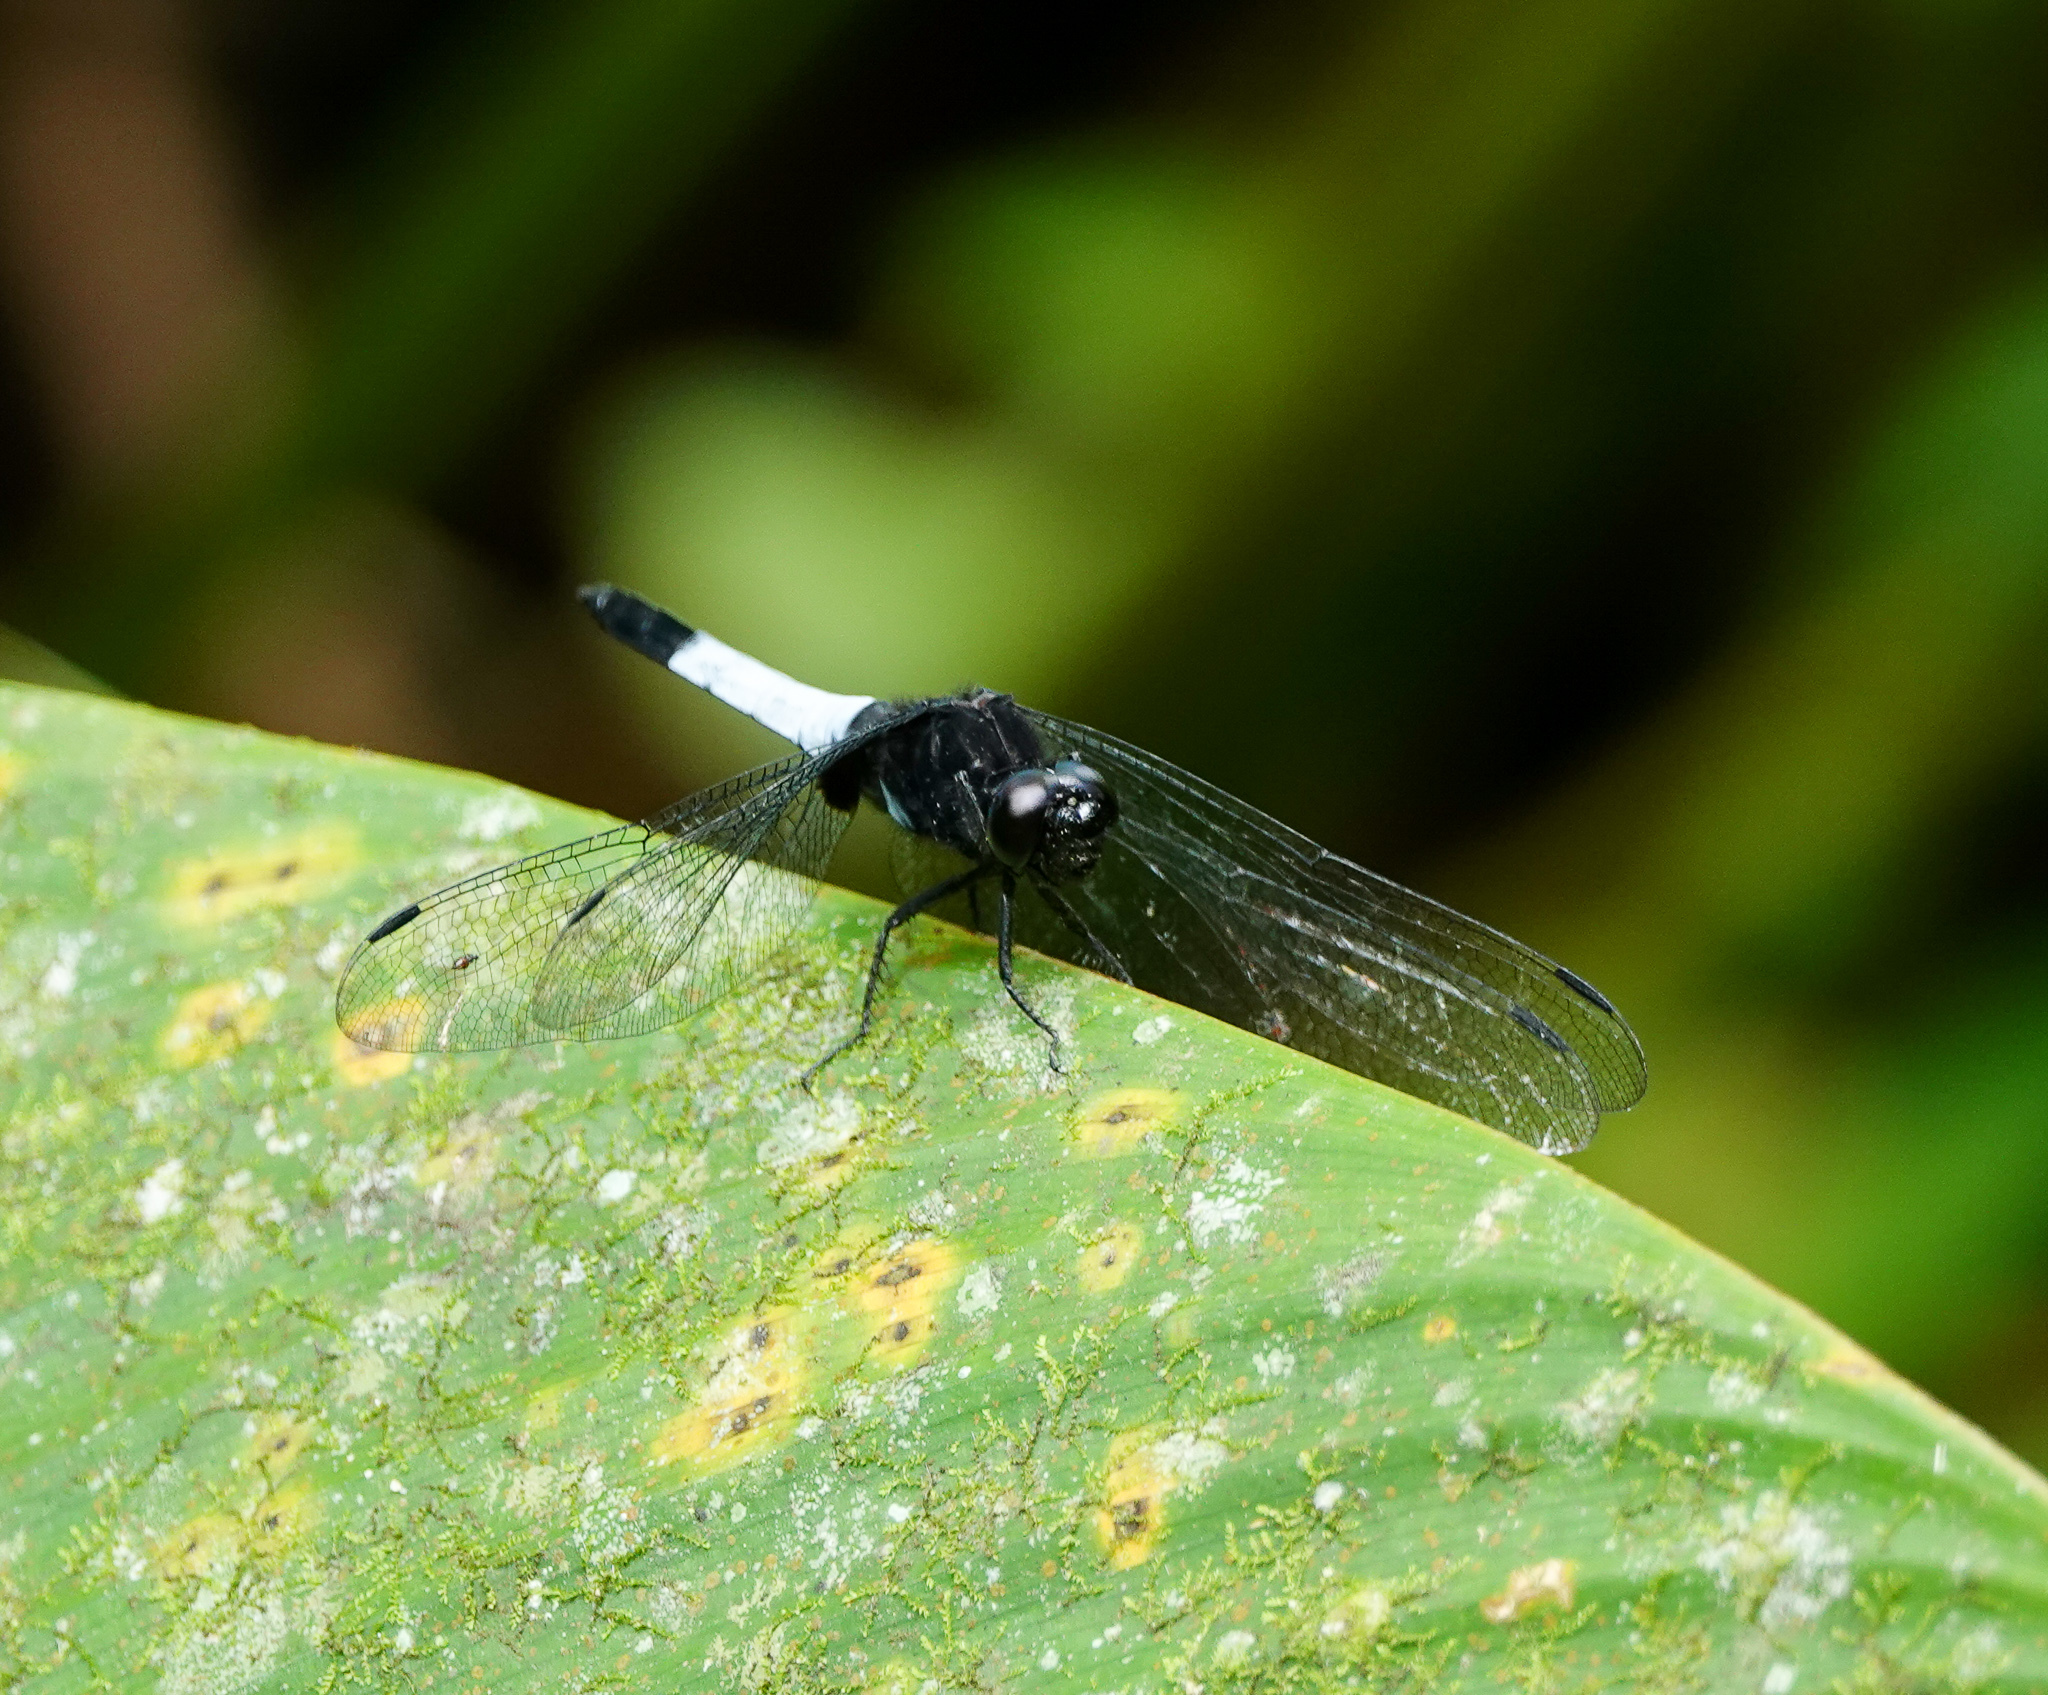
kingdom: Animalia
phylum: Arthropoda
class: Insecta
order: Odonata
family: Libellulidae
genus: Orthetrum
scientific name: Orthetrum triangulare
